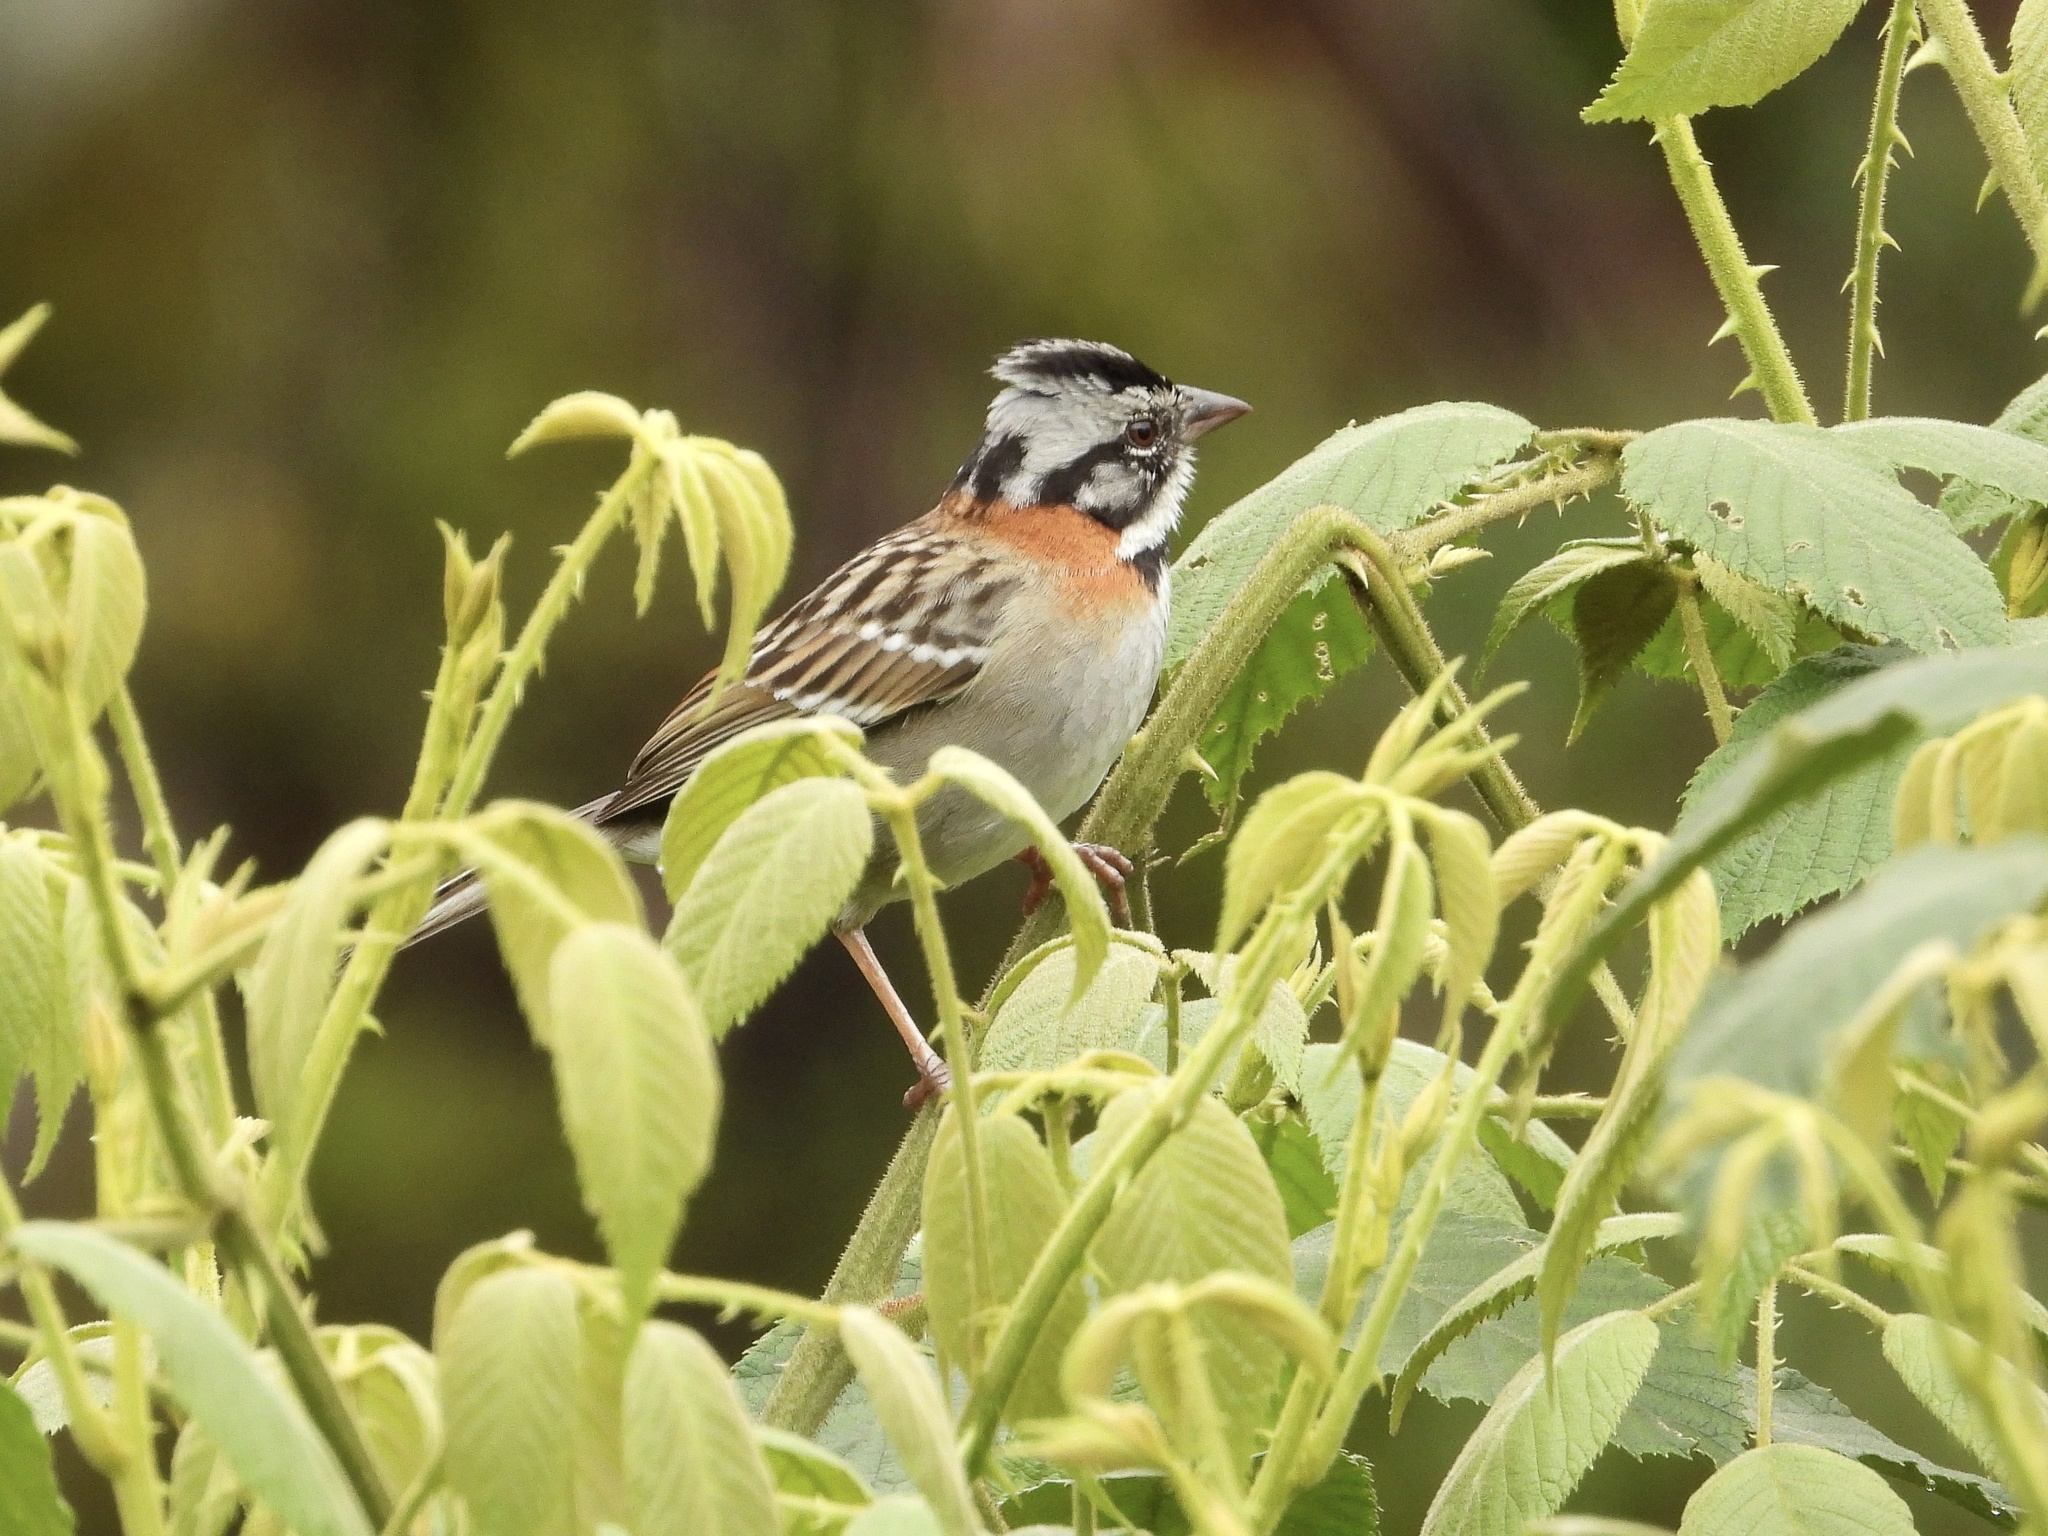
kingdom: Animalia
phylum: Chordata
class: Aves
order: Passeriformes
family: Passerellidae
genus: Zonotrichia
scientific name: Zonotrichia capensis
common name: Rufous-collared sparrow
